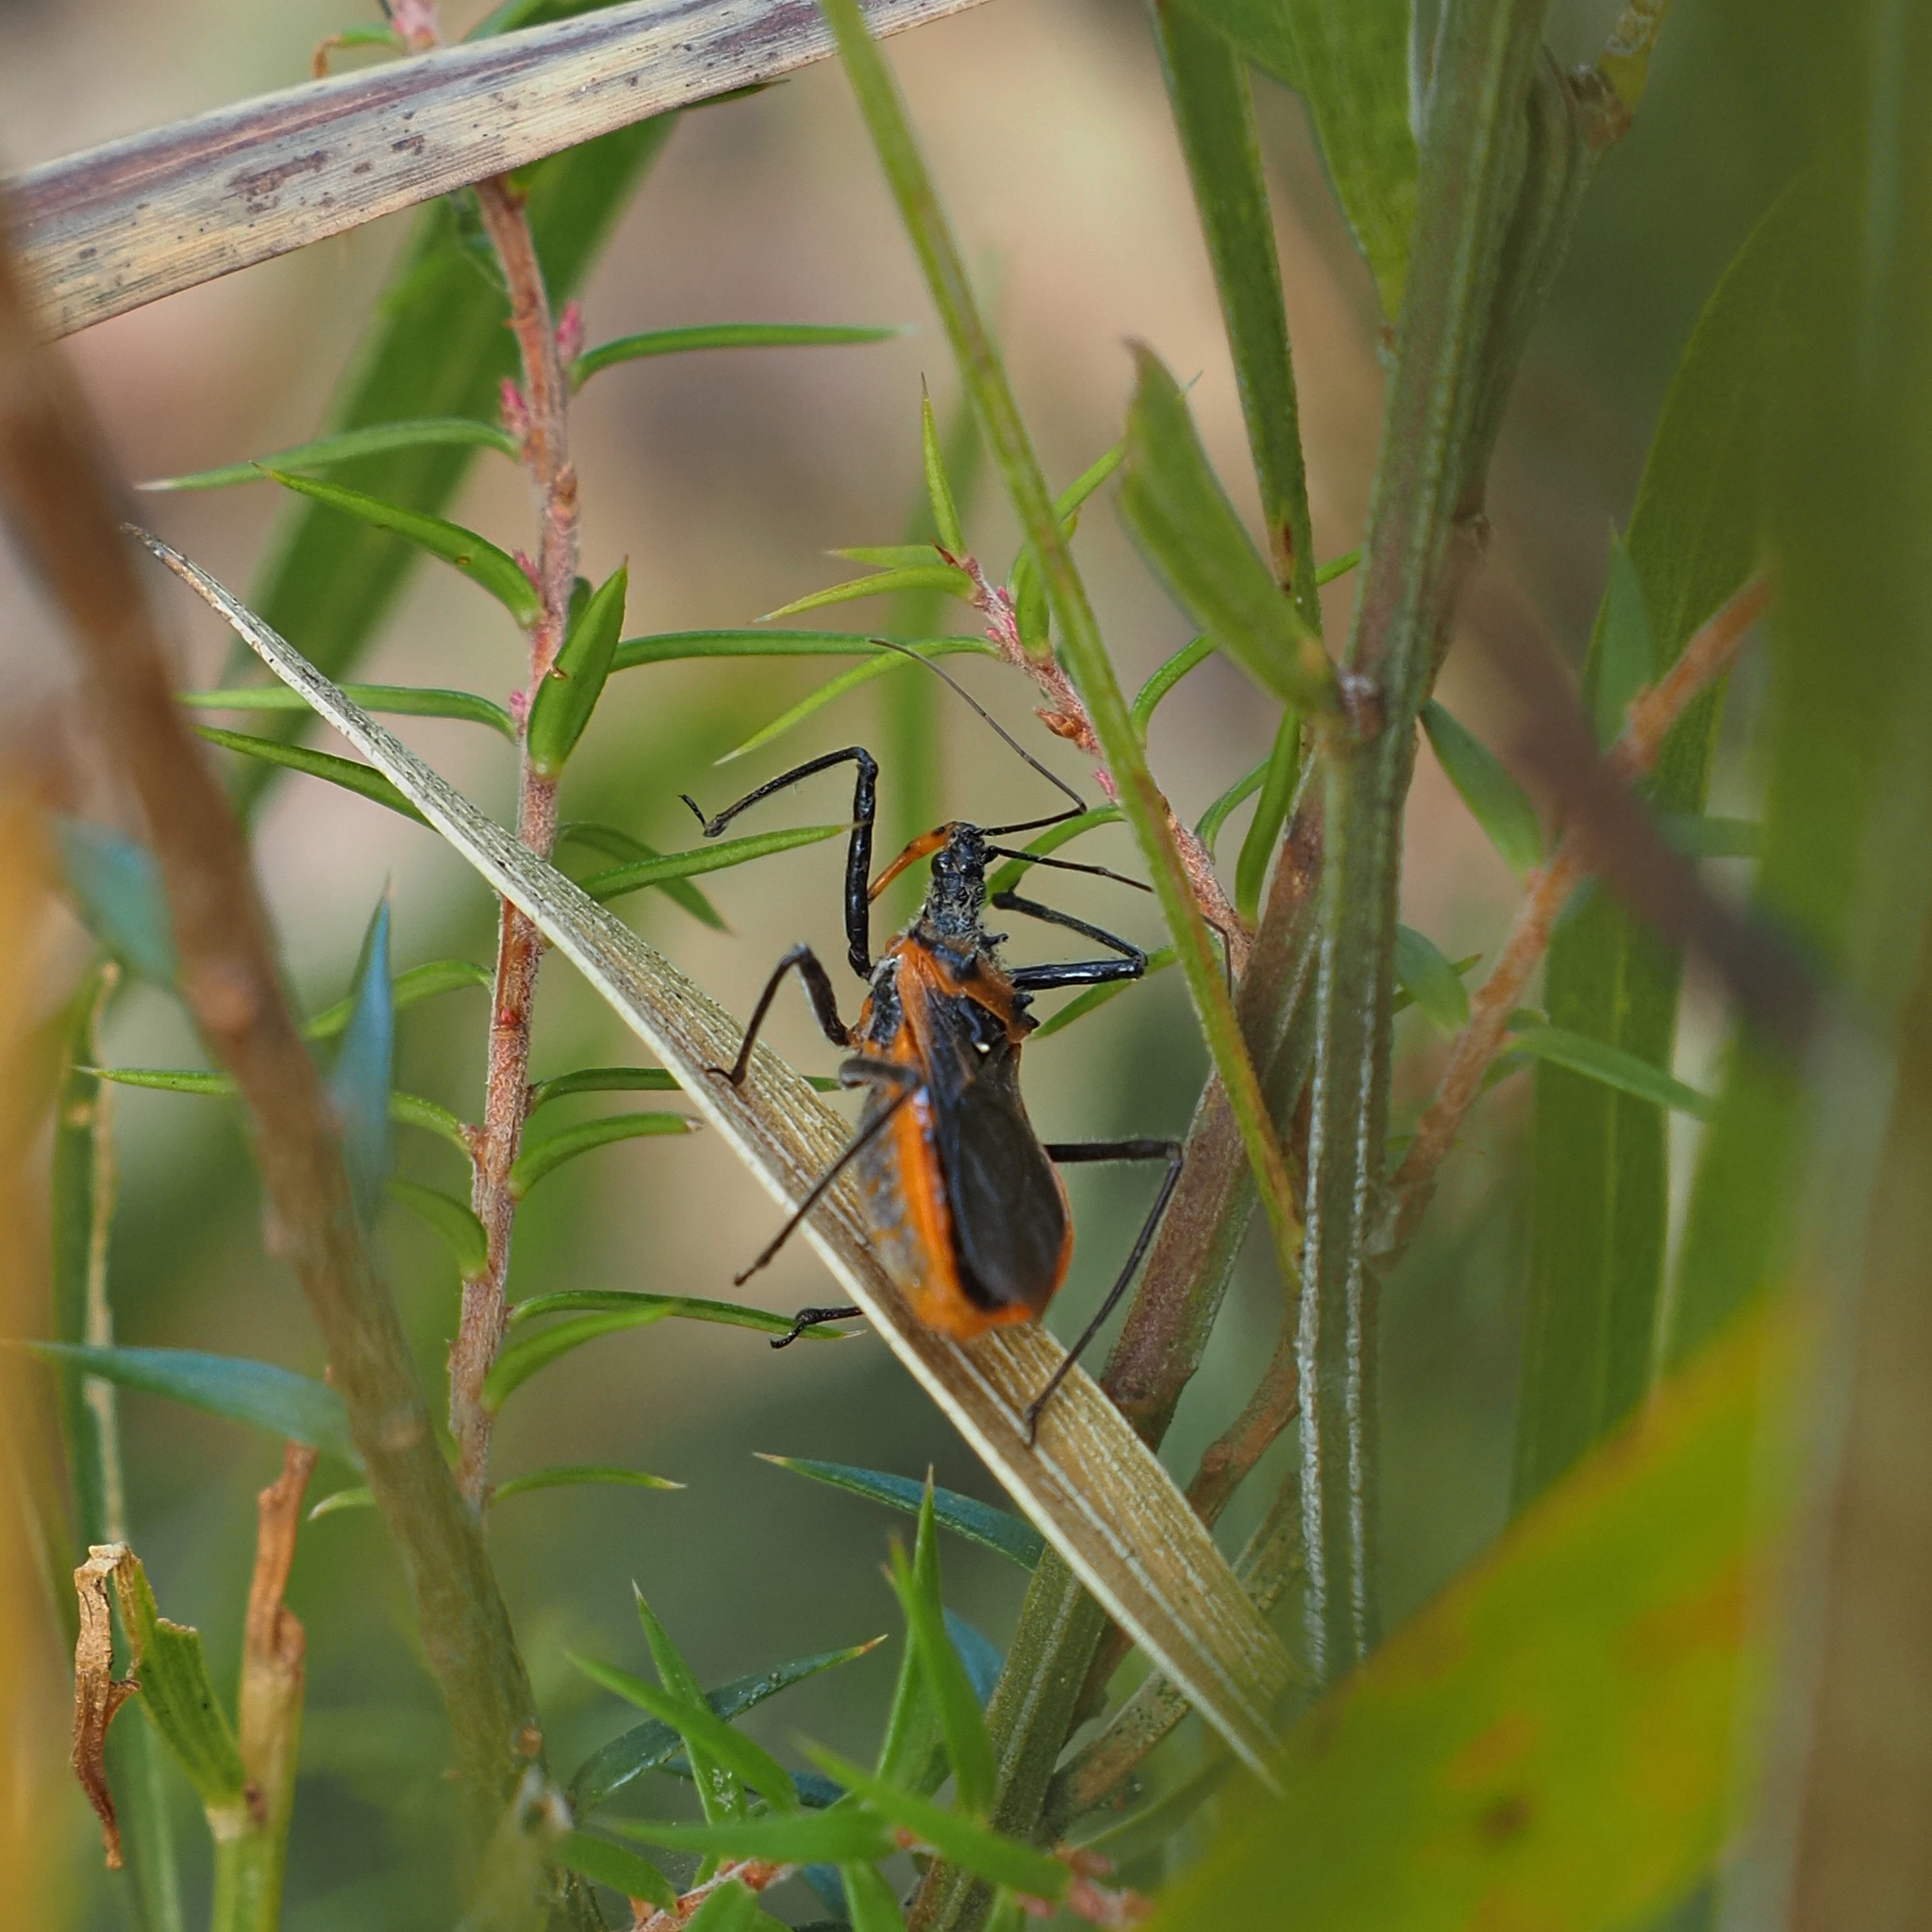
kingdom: Animalia
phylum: Arthropoda
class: Insecta
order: Hemiptera
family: Reduviidae
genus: Gminatus
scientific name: Gminatus australis
